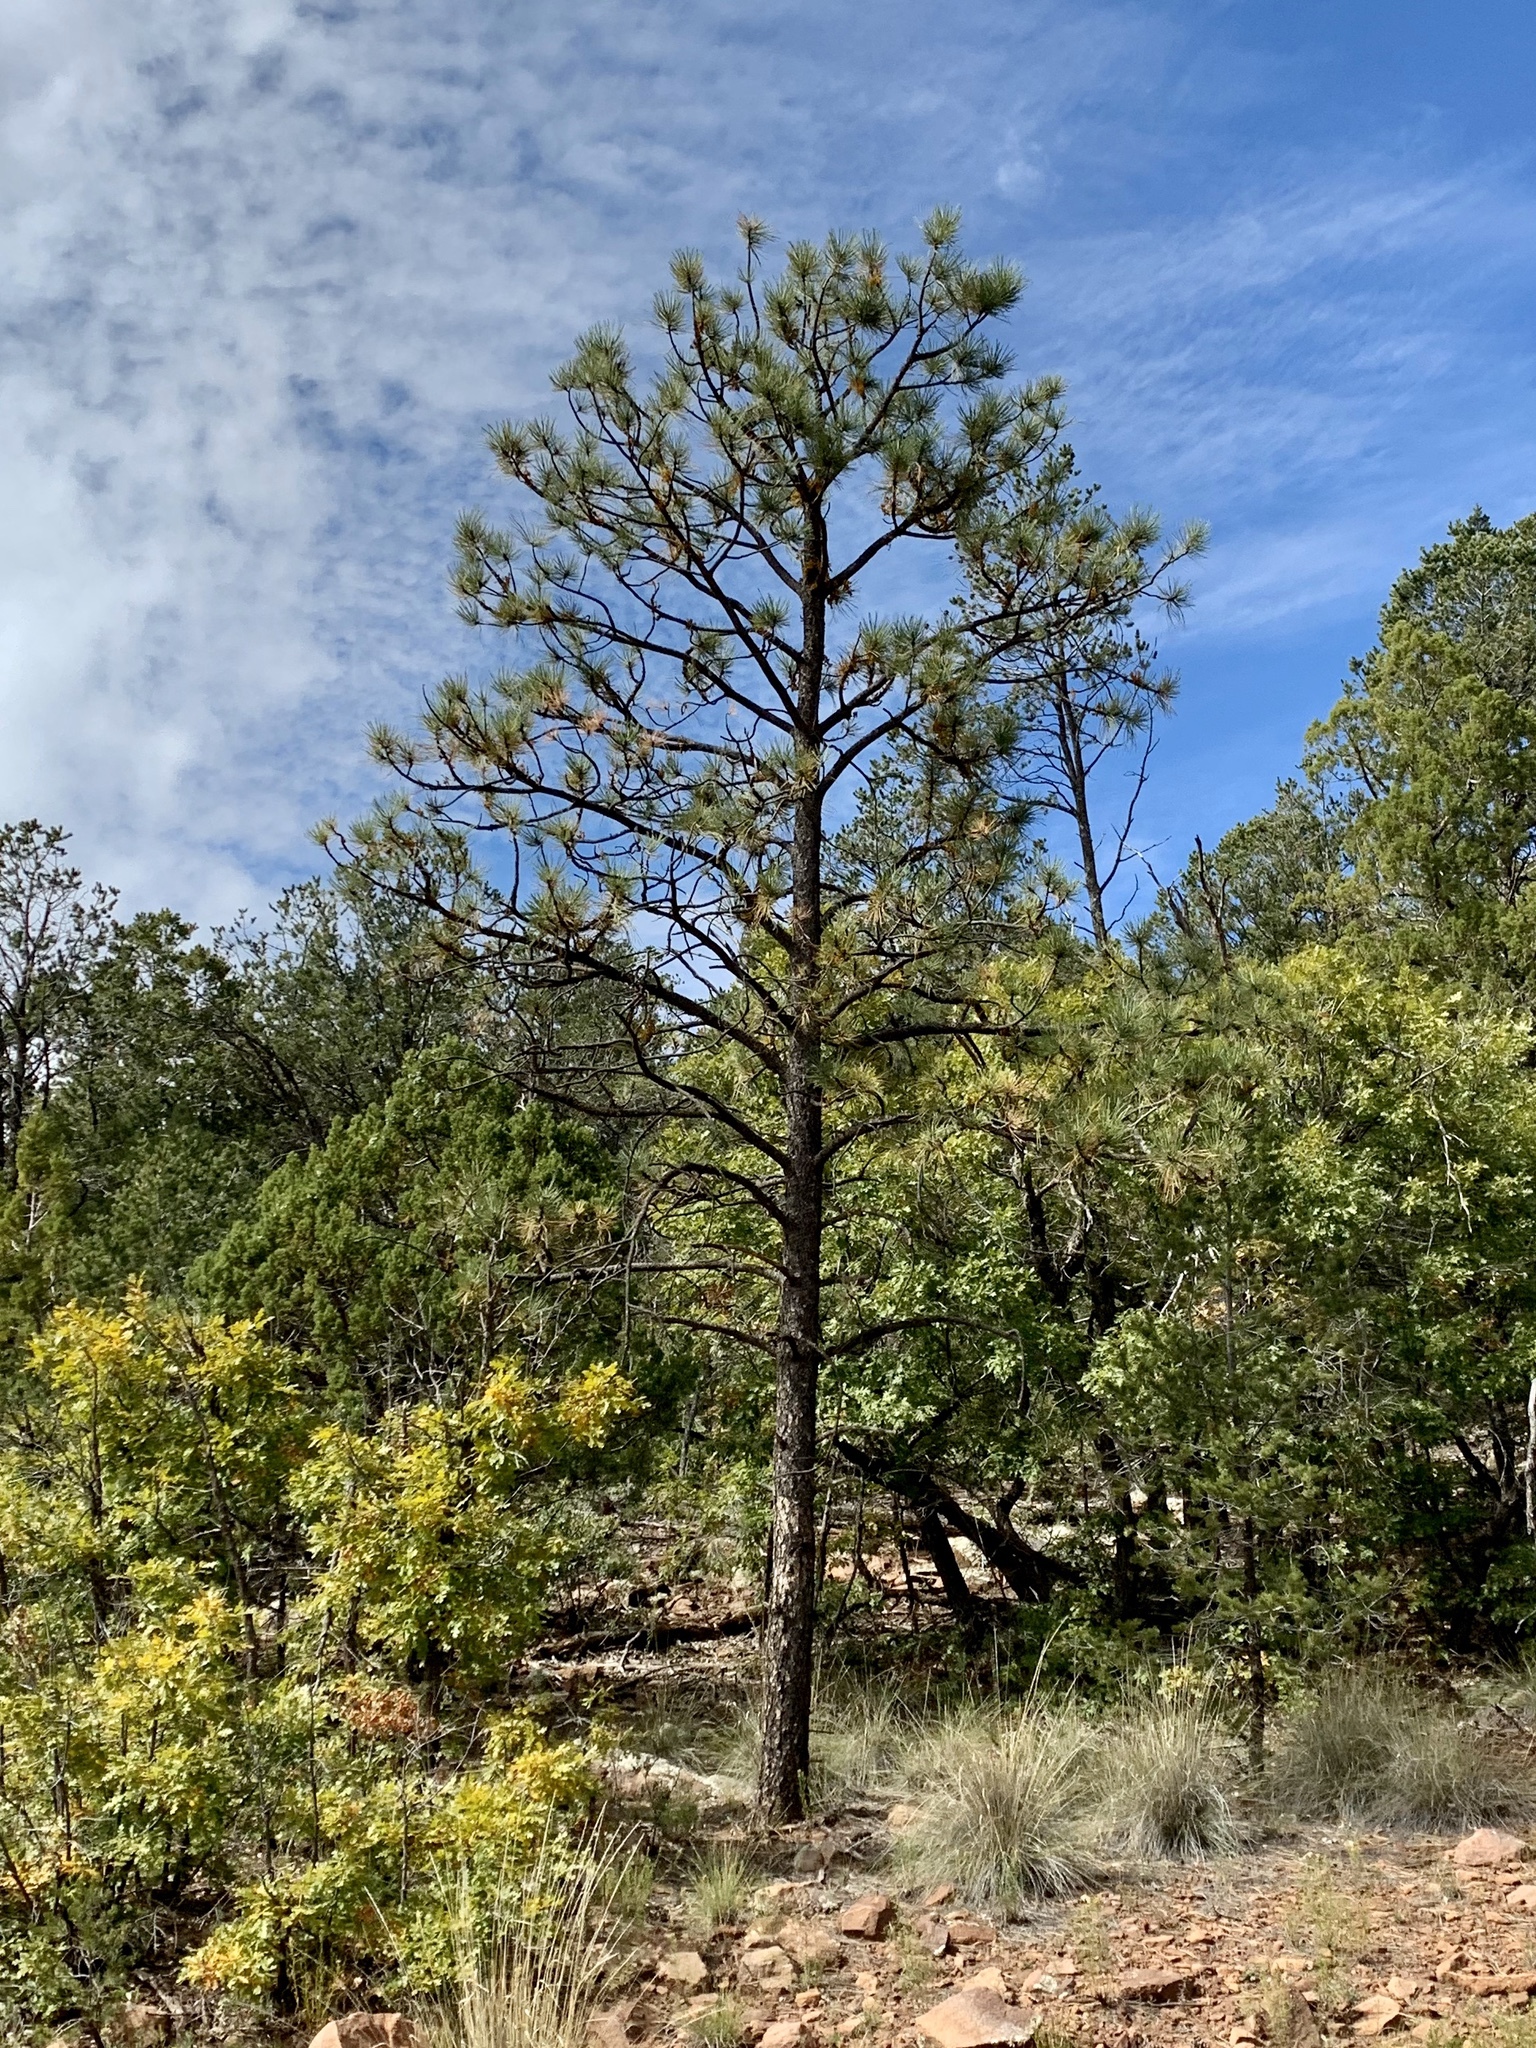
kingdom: Plantae
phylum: Tracheophyta
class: Pinopsida
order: Pinales
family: Pinaceae
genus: Pinus
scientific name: Pinus ponderosa
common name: Western yellow-pine
